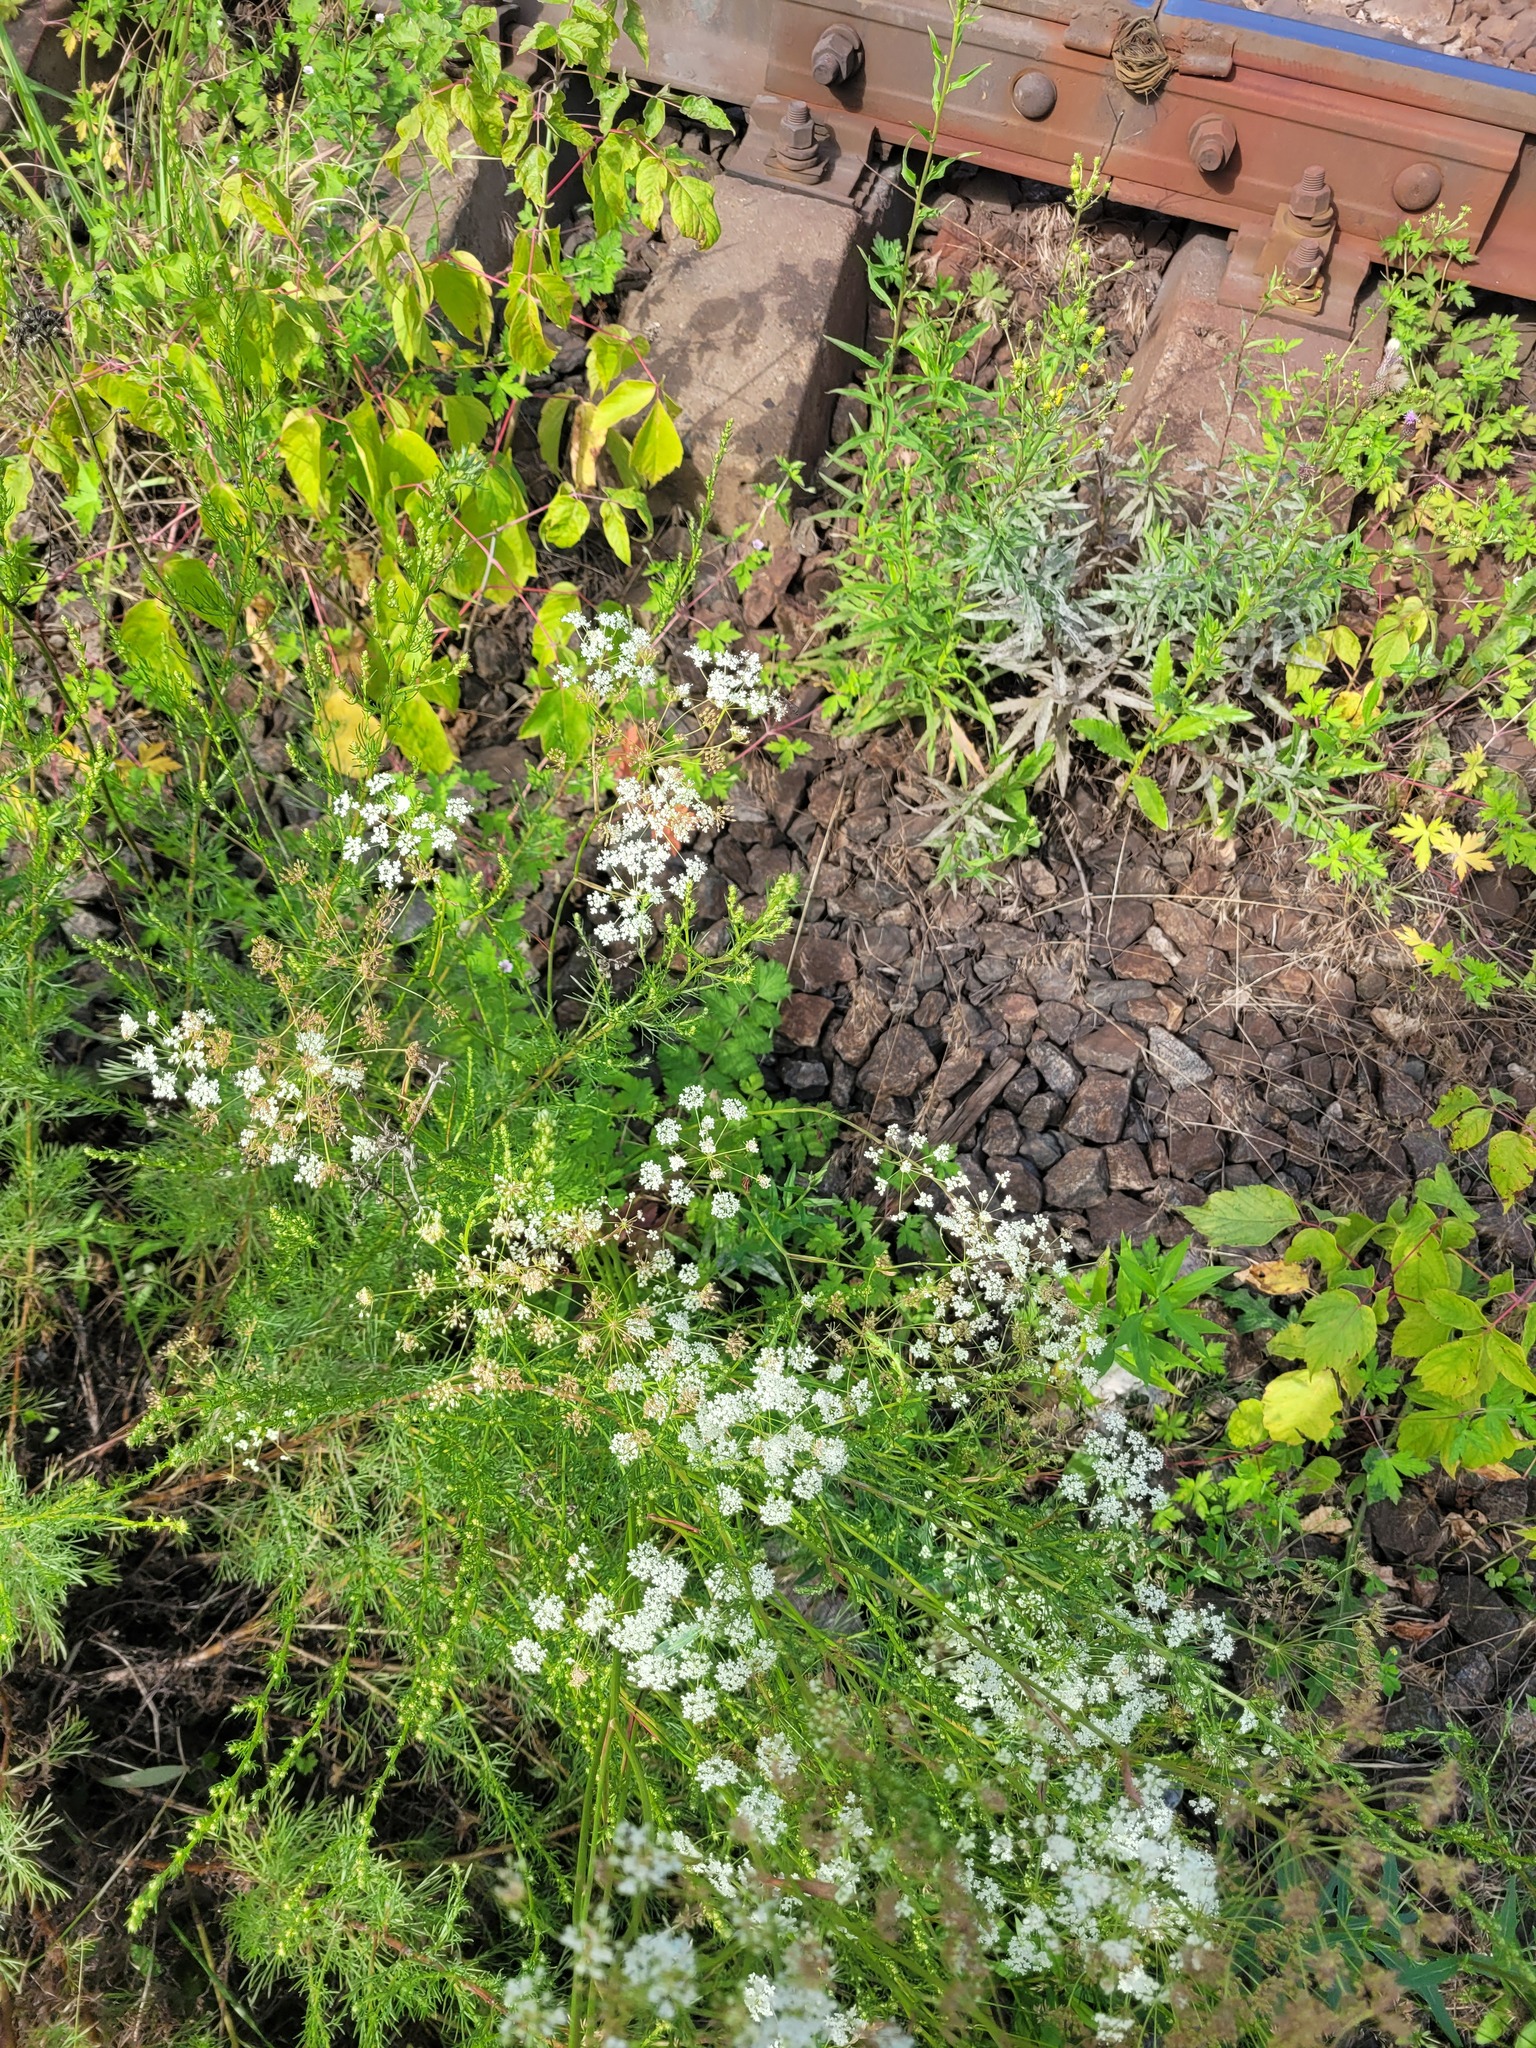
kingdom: Plantae
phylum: Tracheophyta
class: Magnoliopsida
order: Apiales
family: Apiaceae
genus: Pimpinella
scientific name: Pimpinella saxifraga
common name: Burnet-saxifrage
